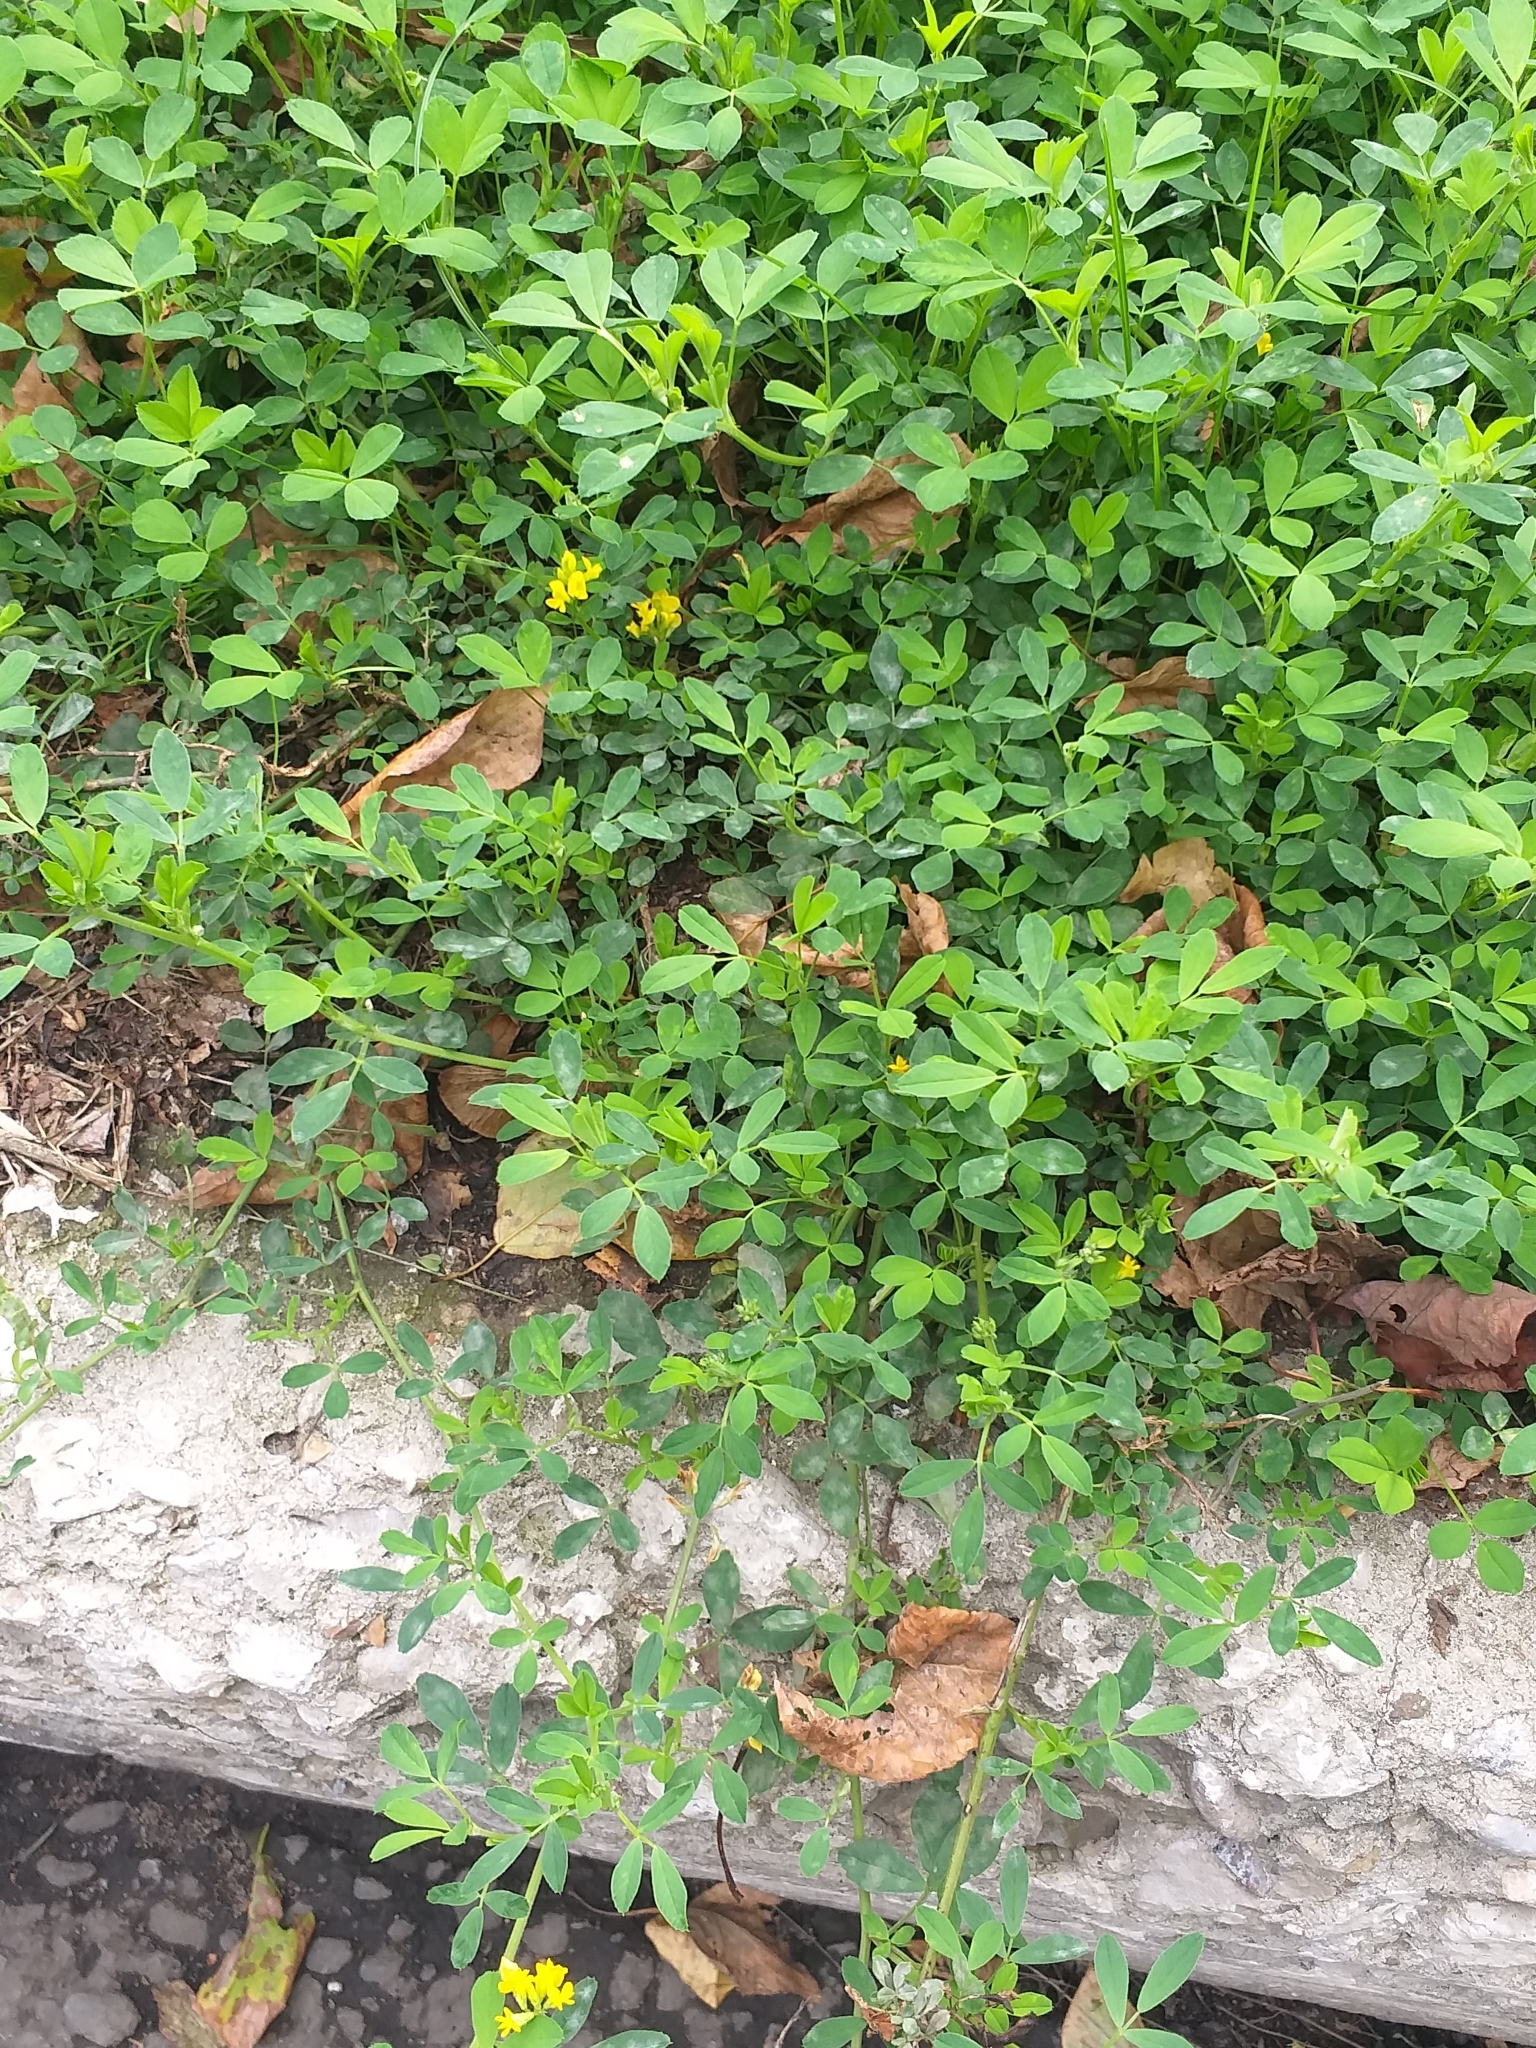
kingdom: Plantae
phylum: Tracheophyta
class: Magnoliopsida
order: Fabales
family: Fabaceae
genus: Medicago
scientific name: Medicago falcata
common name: Sickle medick
